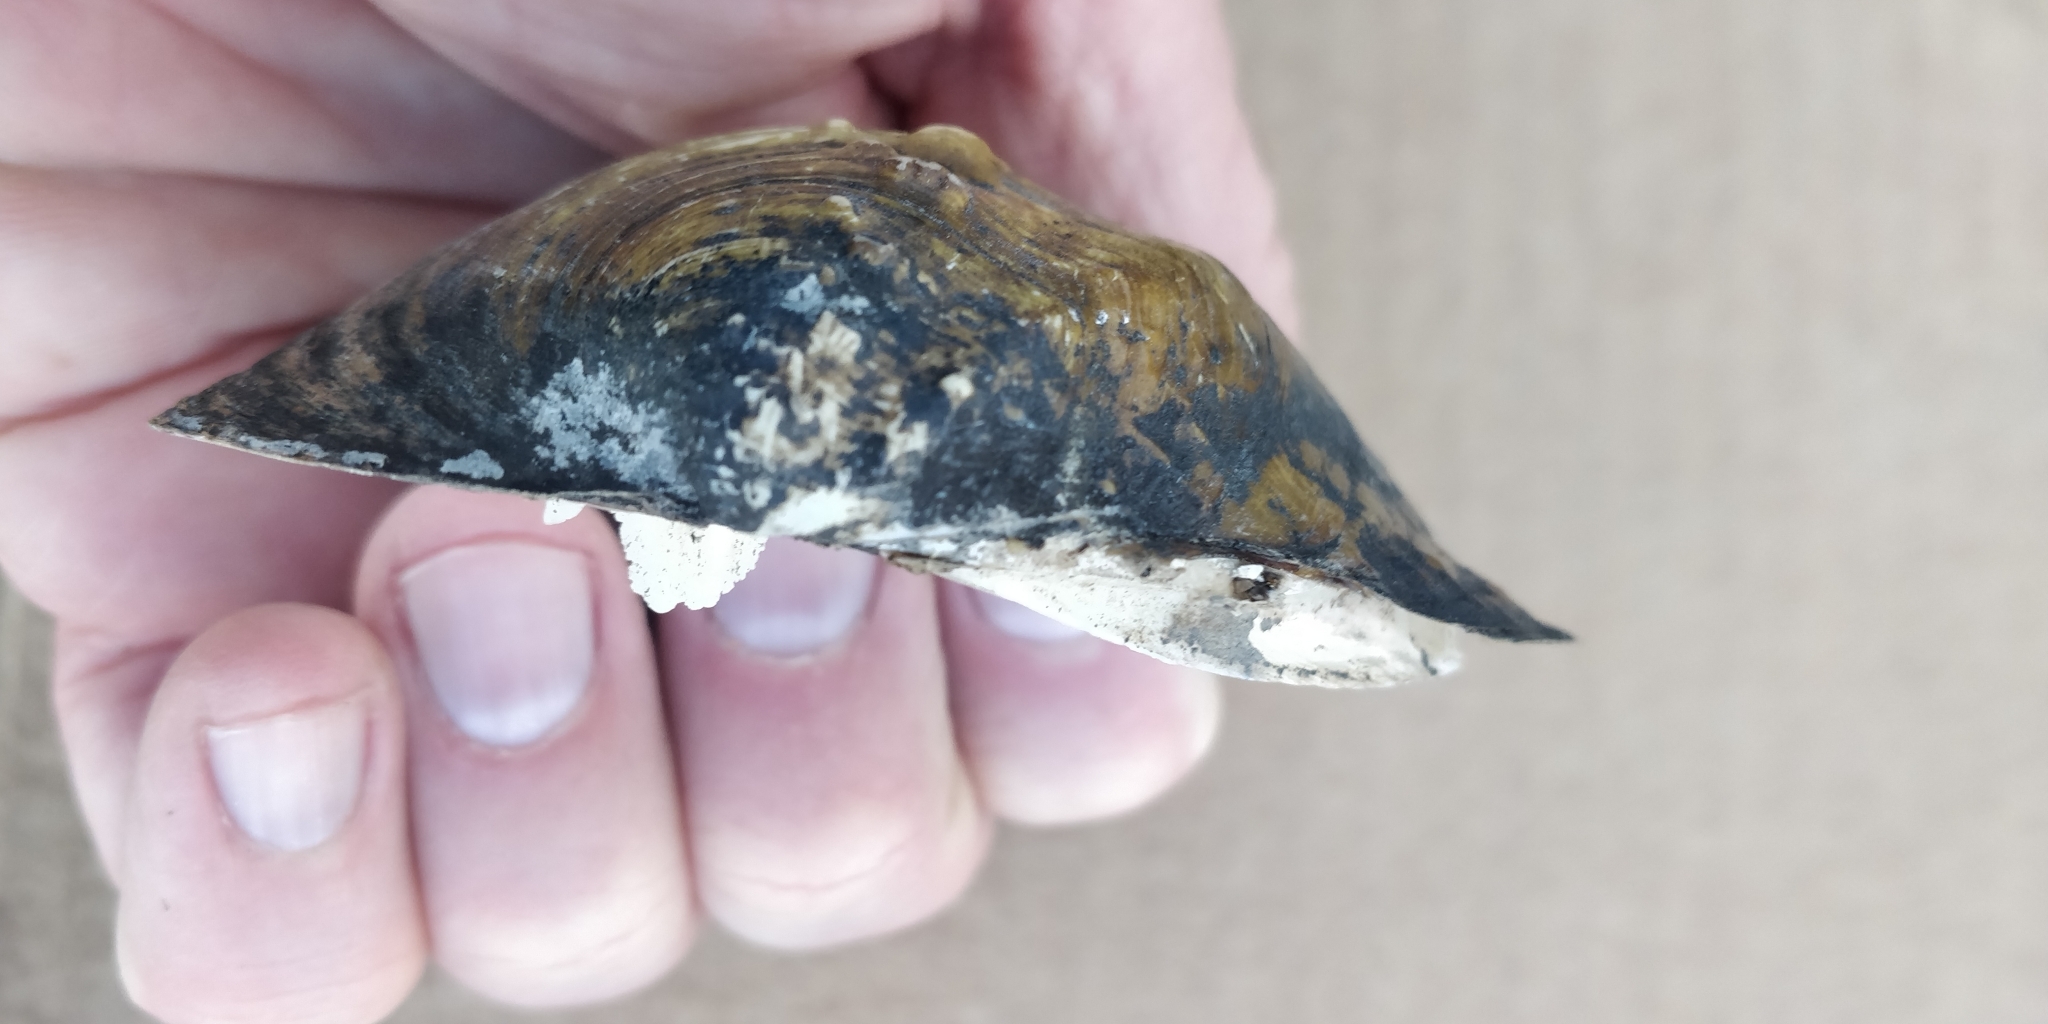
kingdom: Animalia
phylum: Mollusca
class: Bivalvia
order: Unionida
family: Unionidae
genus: Quadrula
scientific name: Quadrula quadrula
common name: Mapleleaf
